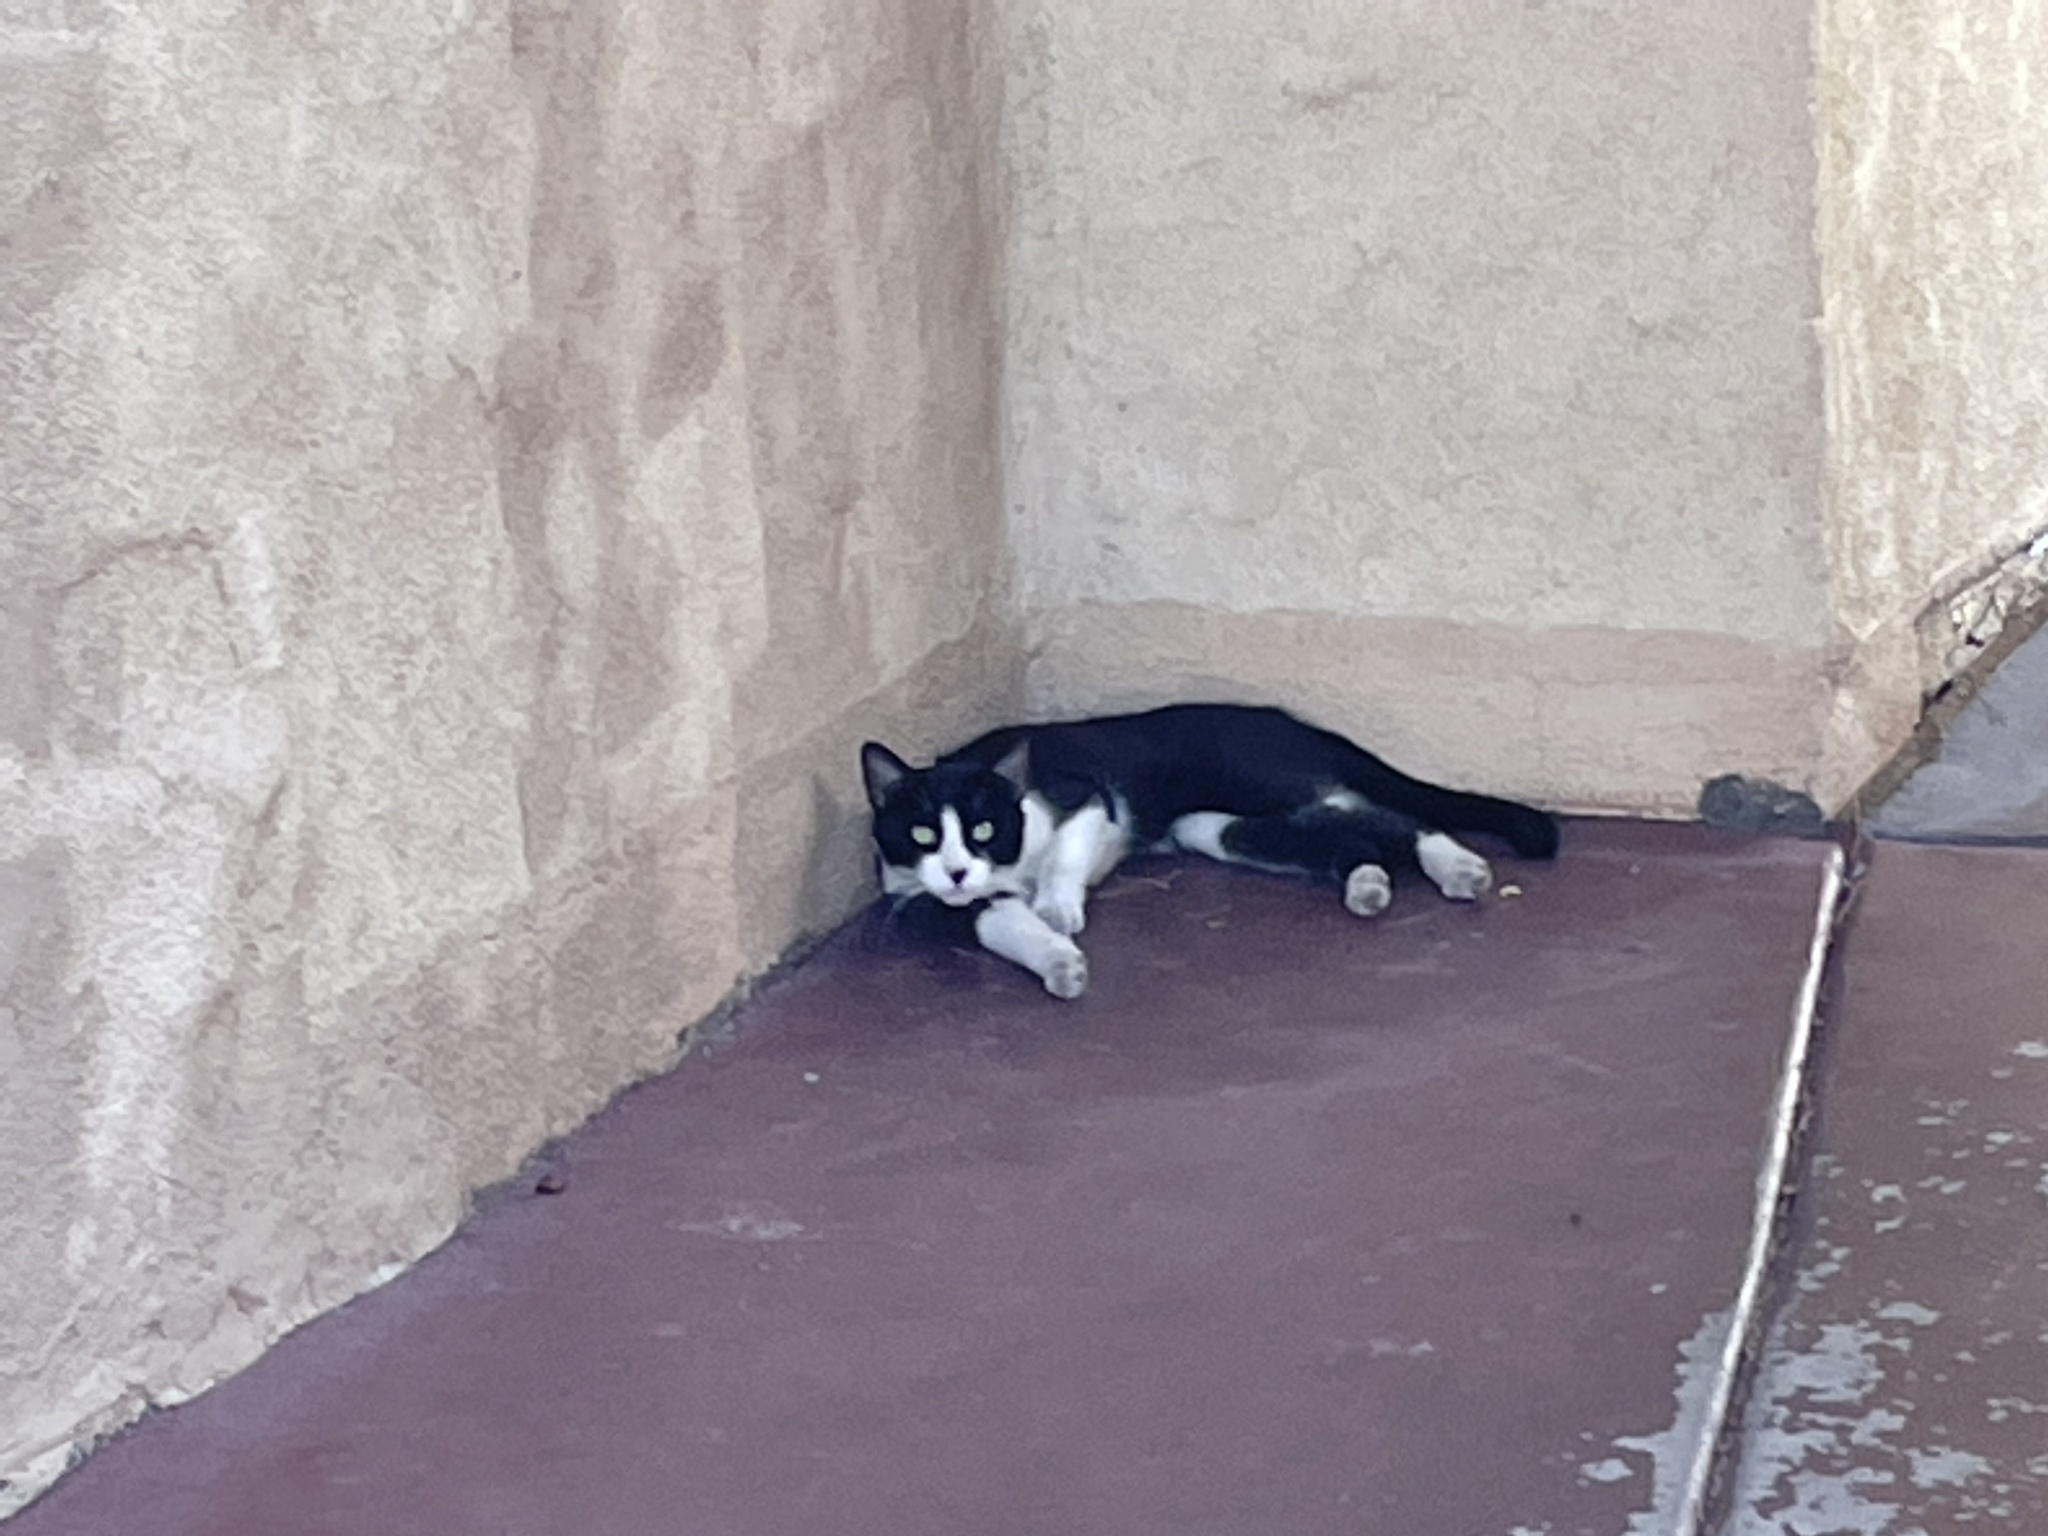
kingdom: Animalia
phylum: Chordata
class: Mammalia
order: Carnivora
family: Felidae
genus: Felis
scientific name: Felis catus
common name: Domestic cat
